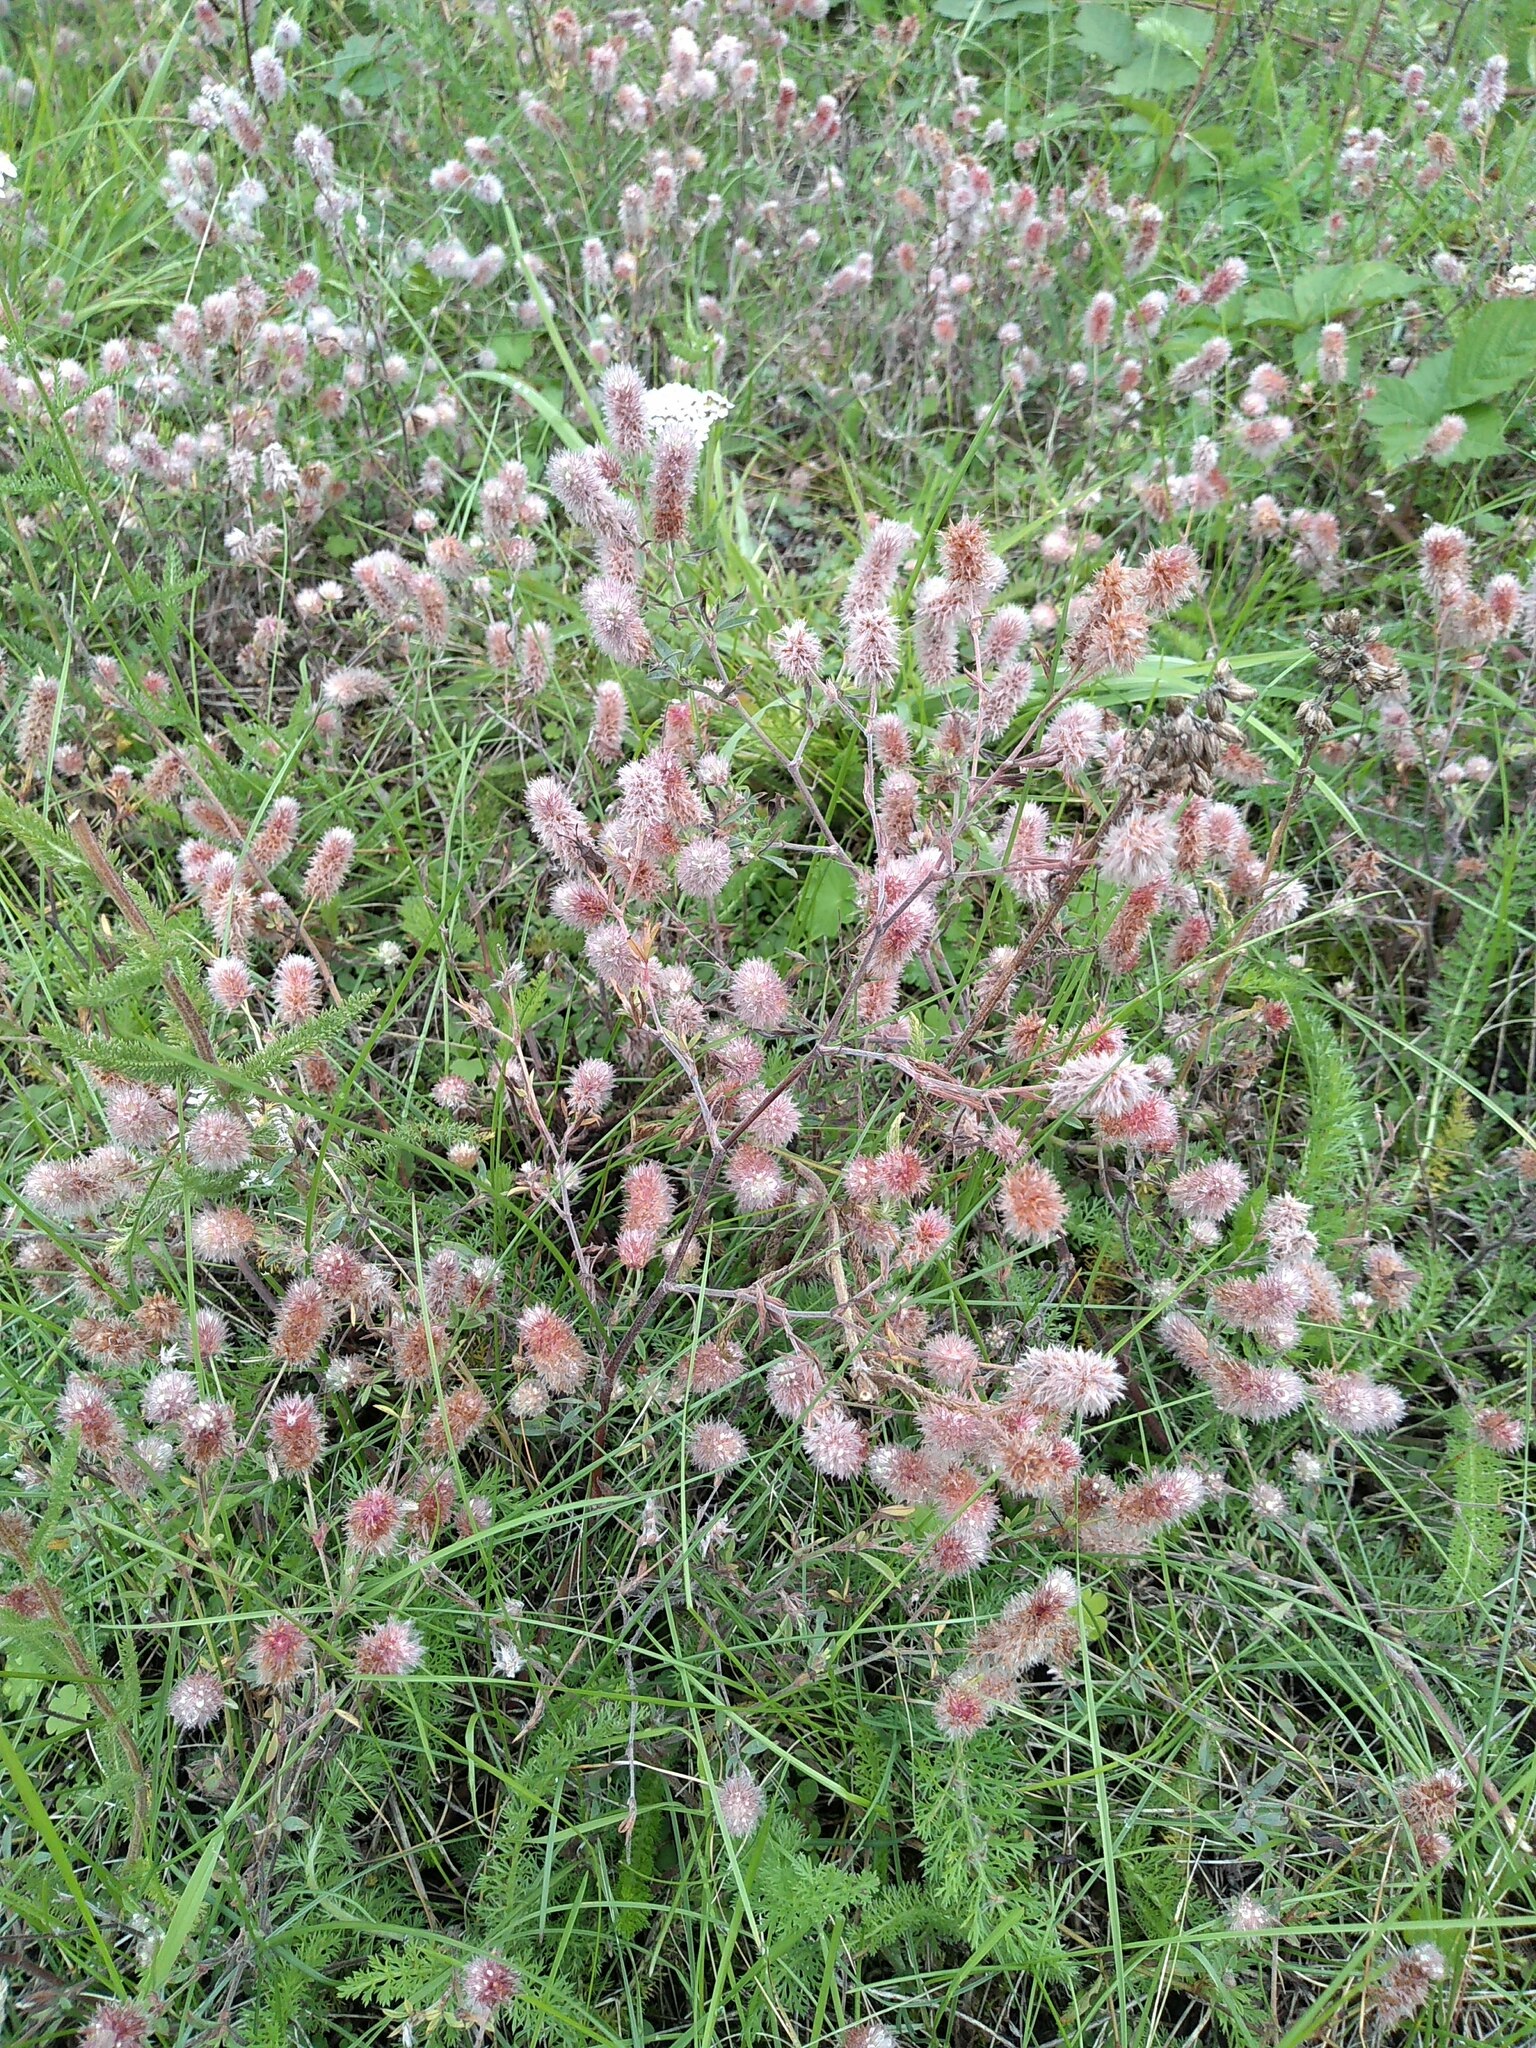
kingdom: Plantae
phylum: Tracheophyta
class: Magnoliopsida
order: Fabales
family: Fabaceae
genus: Trifolium
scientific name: Trifolium arvense
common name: Hare's-foot clover
